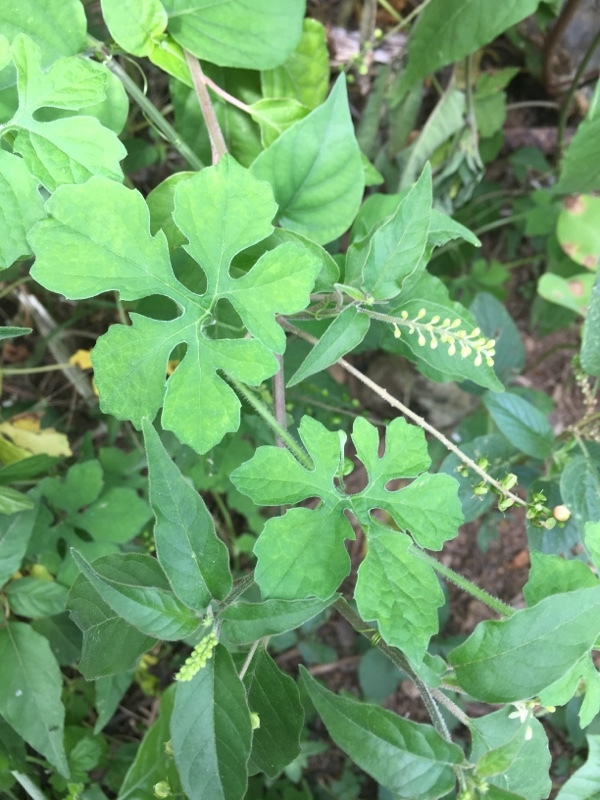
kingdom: Plantae
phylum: Tracheophyta
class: Magnoliopsida
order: Cucurbitales
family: Cucurbitaceae
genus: Momordica
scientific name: Momordica charantia
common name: Balsampear
